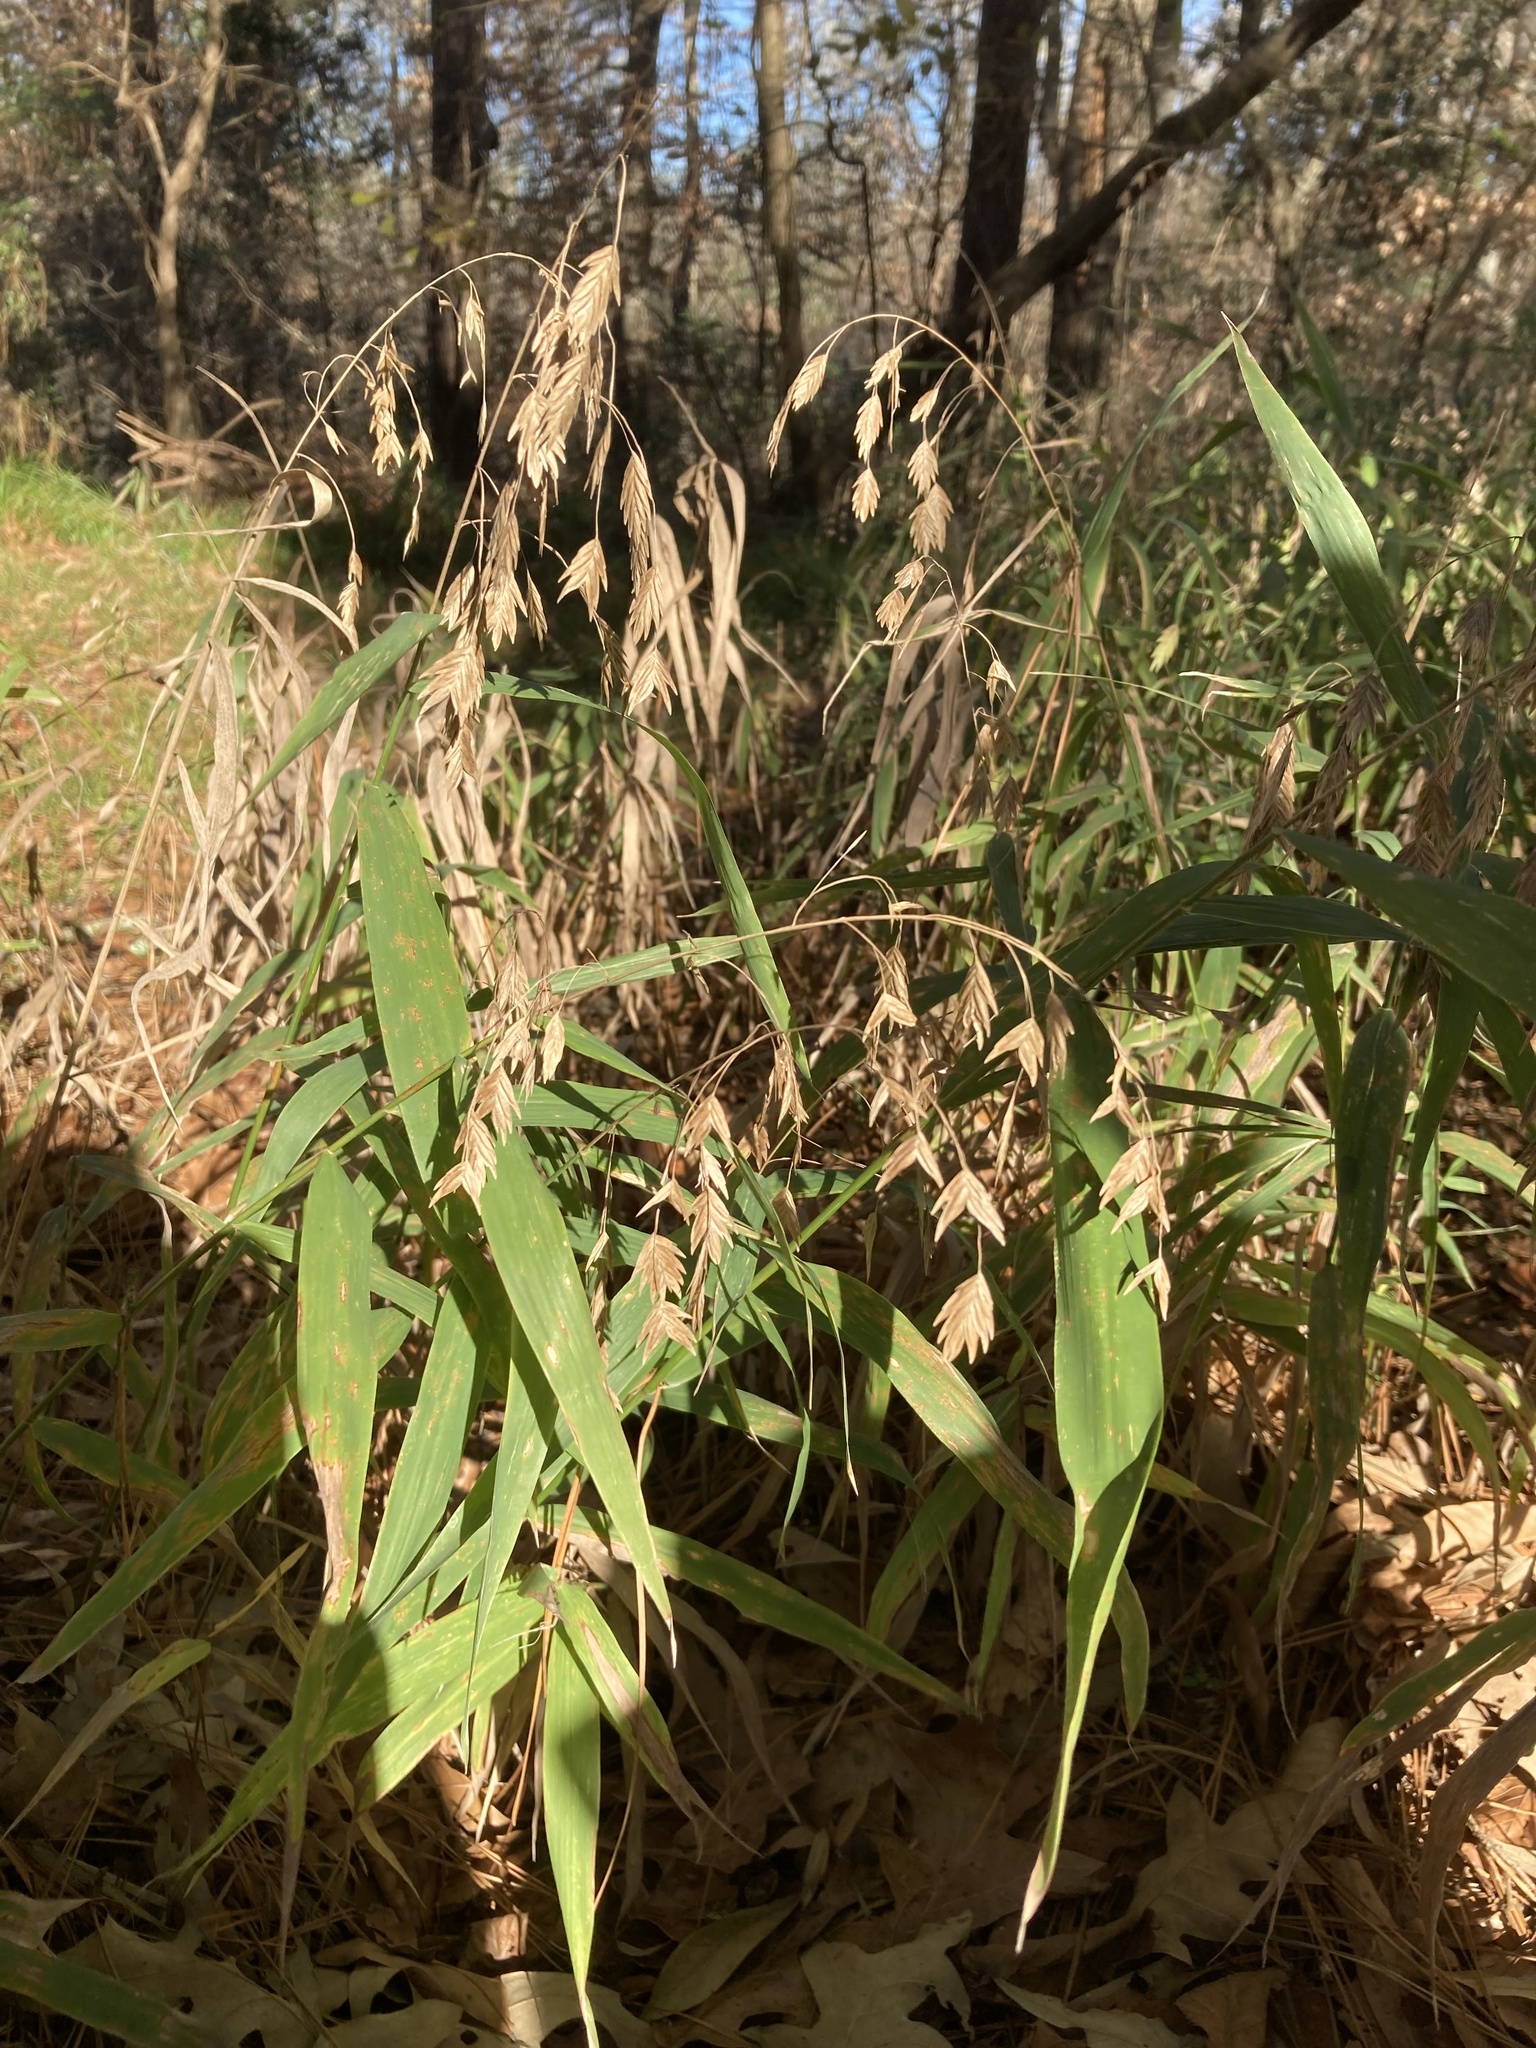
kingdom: Plantae
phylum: Tracheophyta
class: Liliopsida
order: Poales
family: Poaceae
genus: Chasmanthium
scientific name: Chasmanthium latifolium
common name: Broad-leaved chasmanthium
